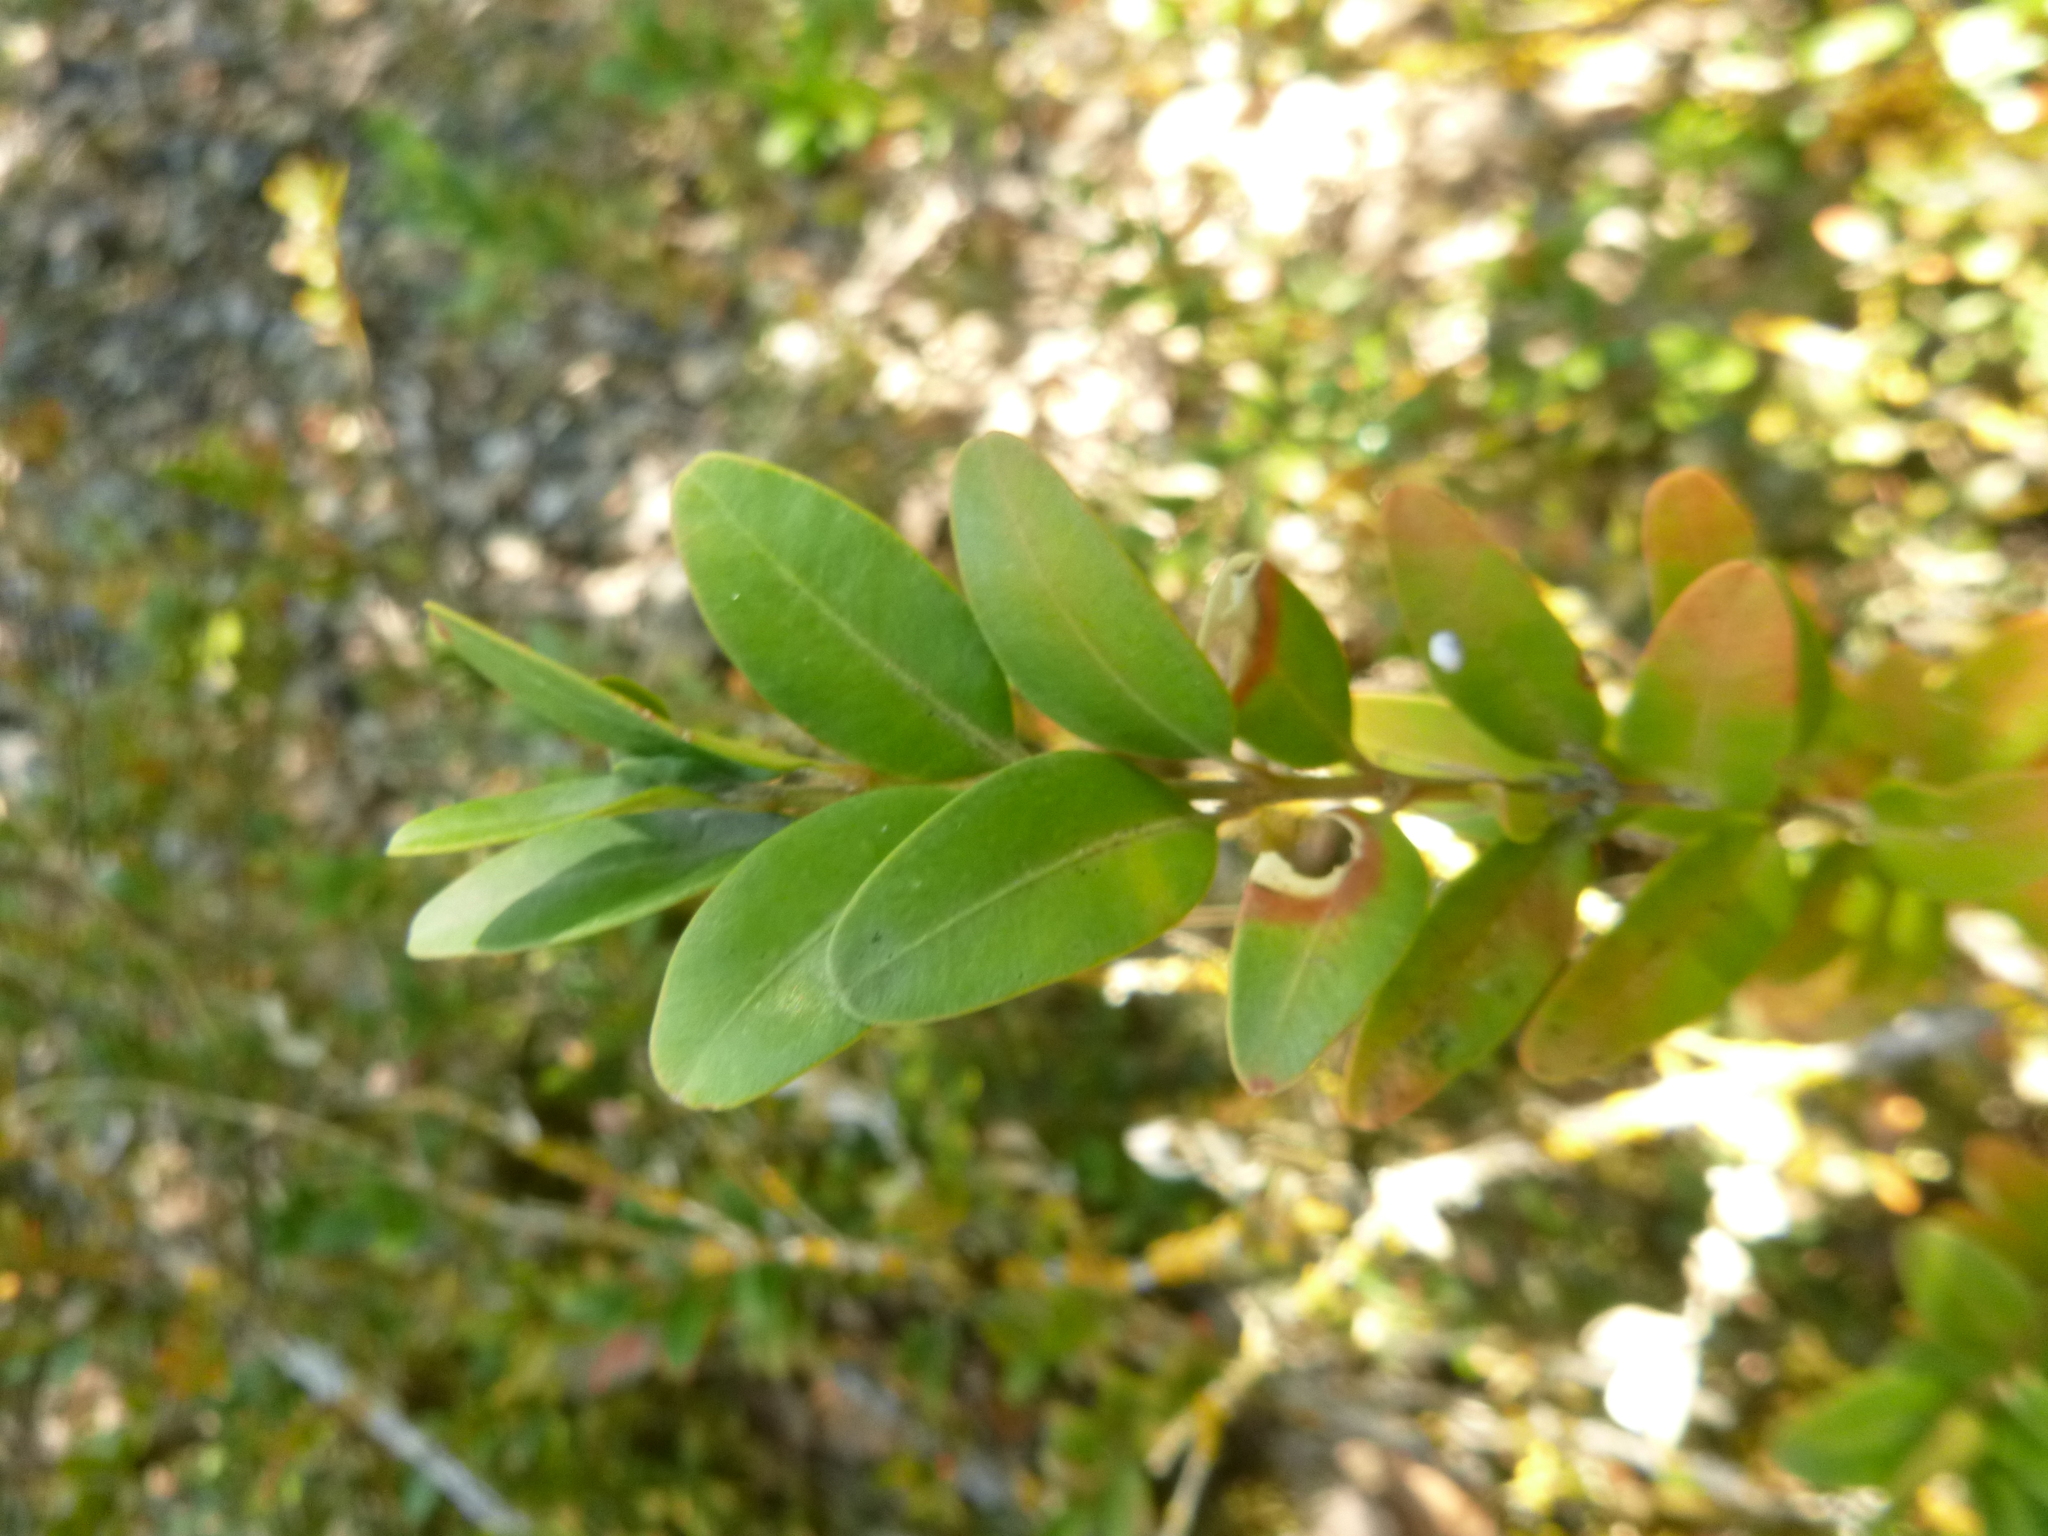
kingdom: Plantae
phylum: Tracheophyta
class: Magnoliopsida
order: Buxales
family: Buxaceae
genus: Buxus
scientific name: Buxus sempervirens
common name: Box
